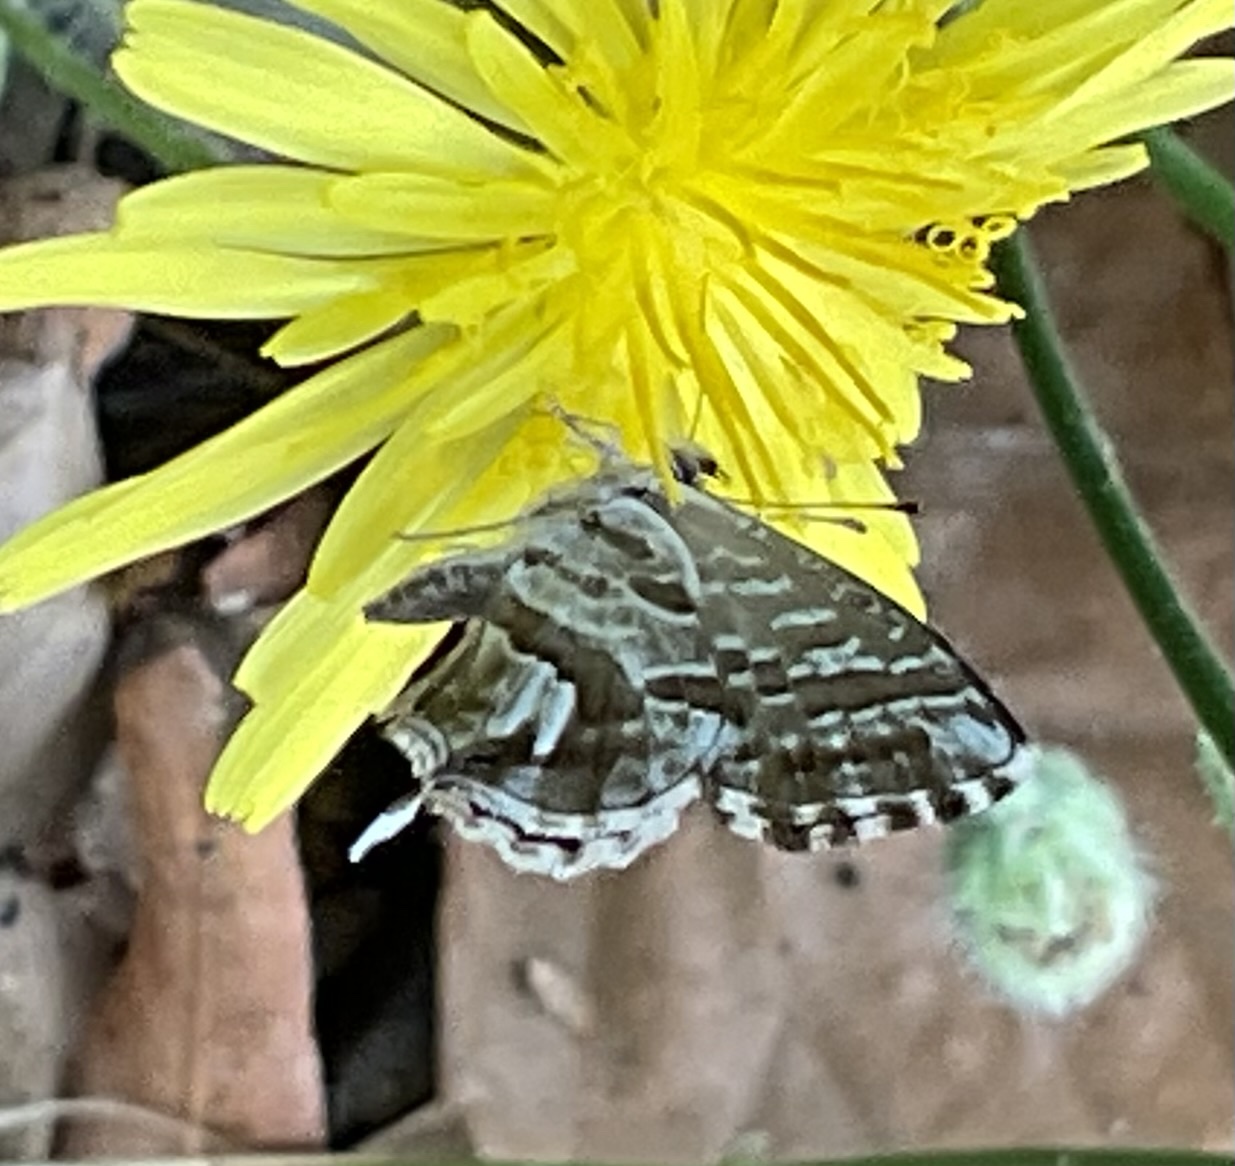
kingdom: Animalia
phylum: Arthropoda
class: Insecta
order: Lepidoptera
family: Lycaenidae
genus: Cacyreus
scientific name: Cacyreus marshalli
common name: Geranium bronze
